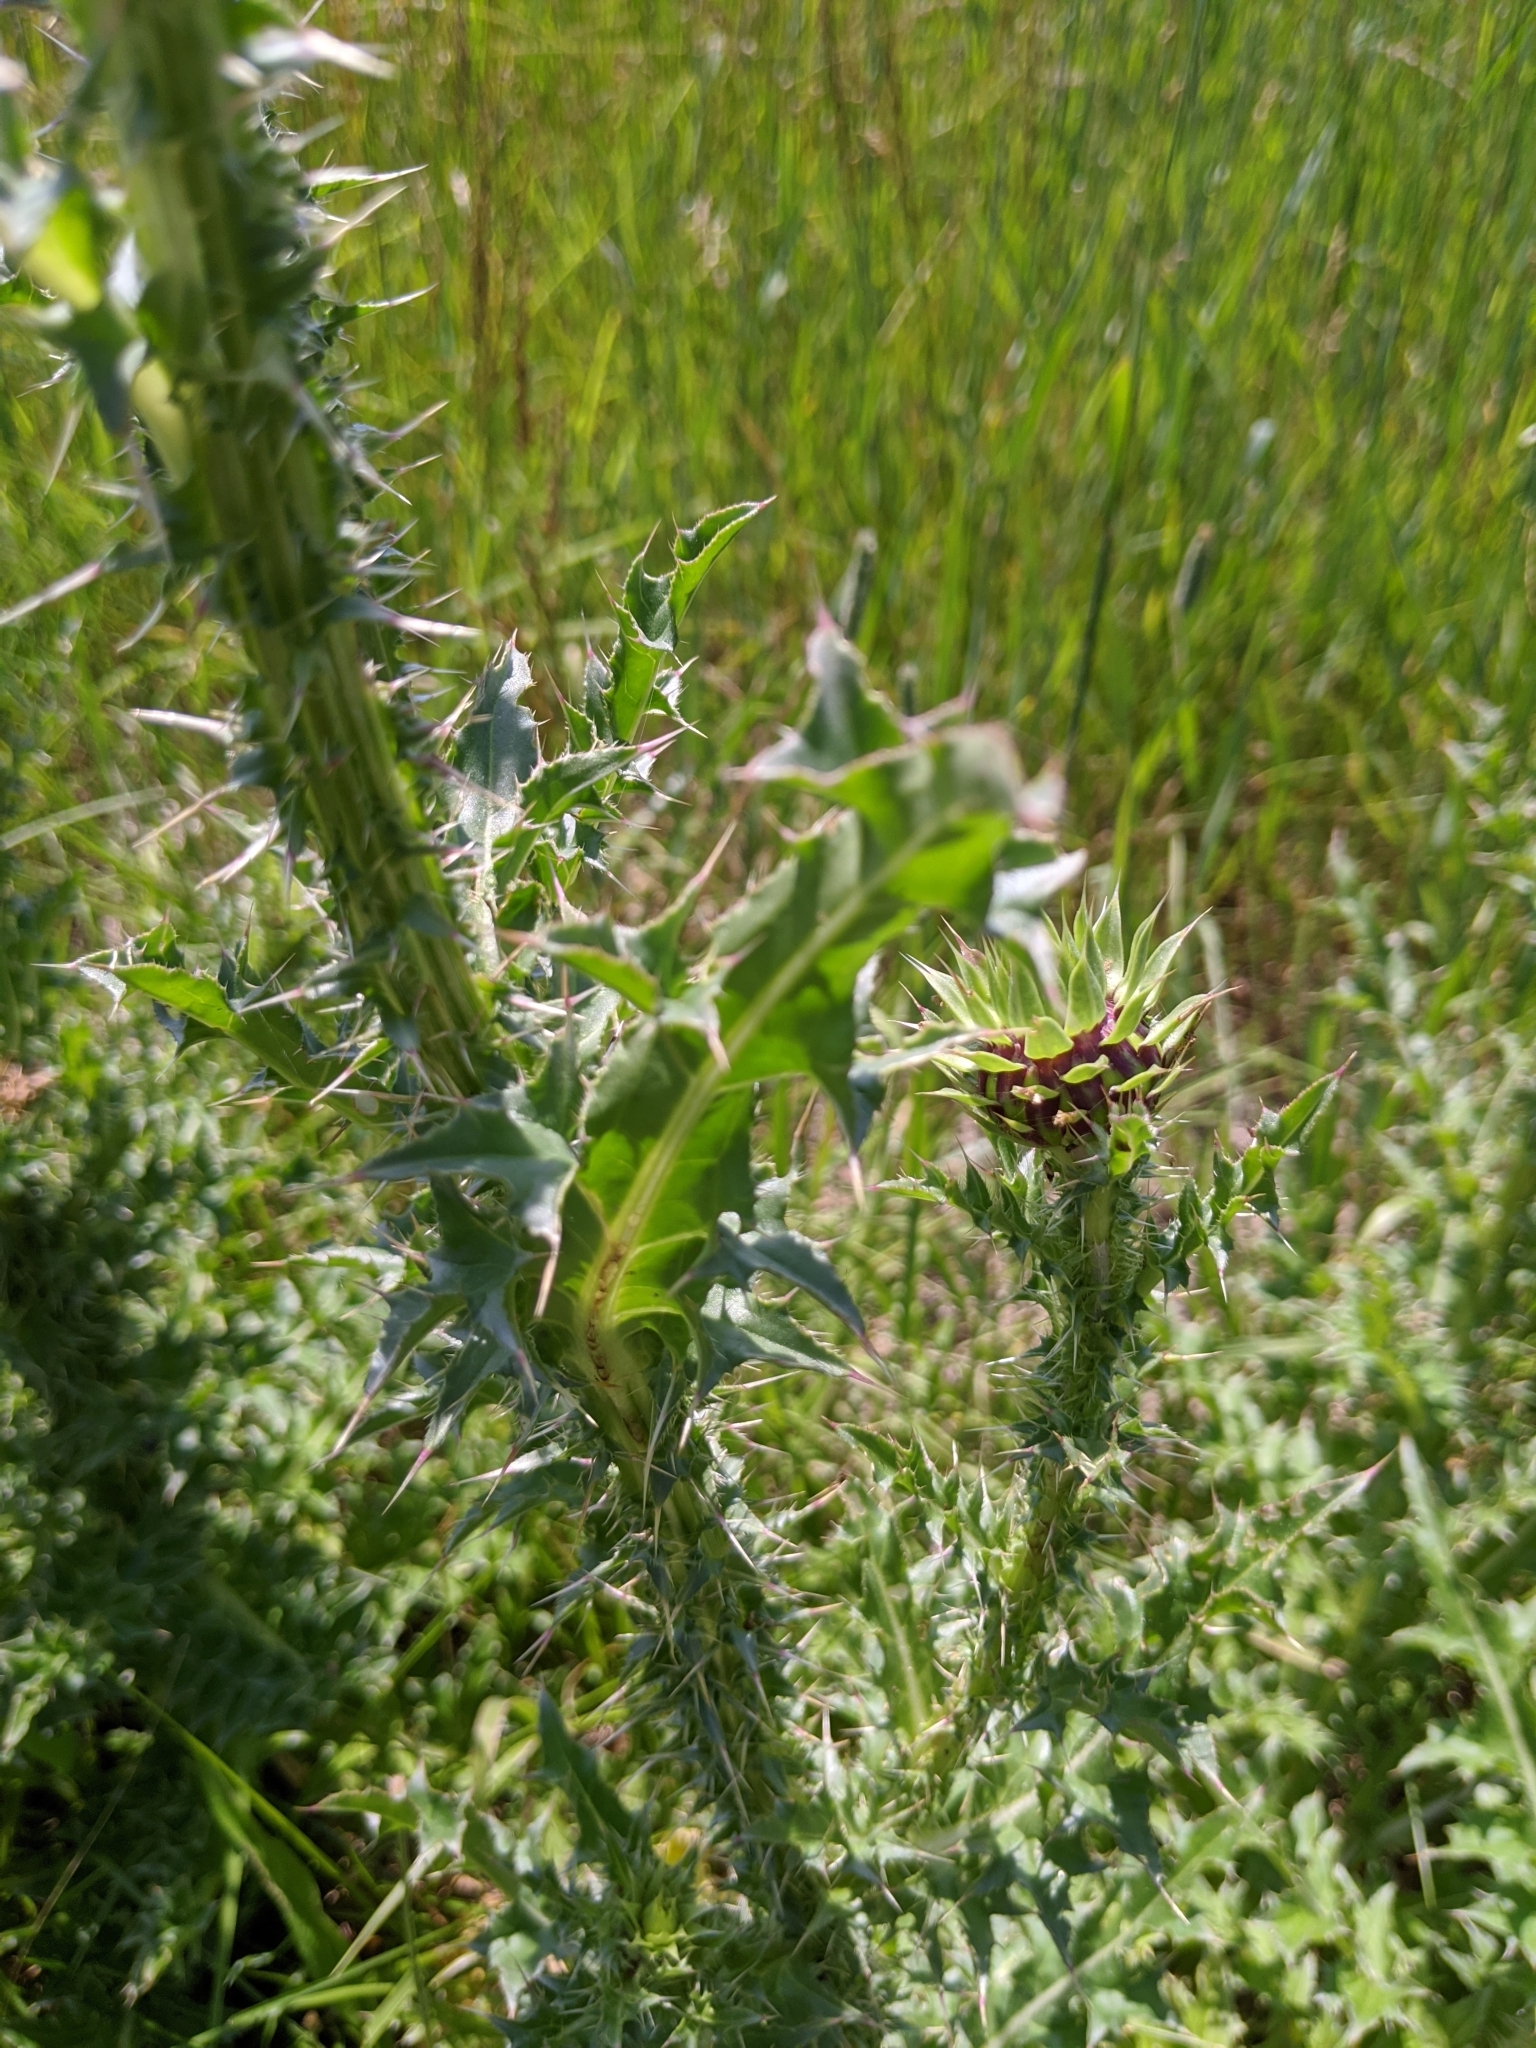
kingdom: Plantae
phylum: Tracheophyta
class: Magnoliopsida
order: Asterales
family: Asteraceae
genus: Carduus
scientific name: Carduus nutans
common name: Musk thistle
